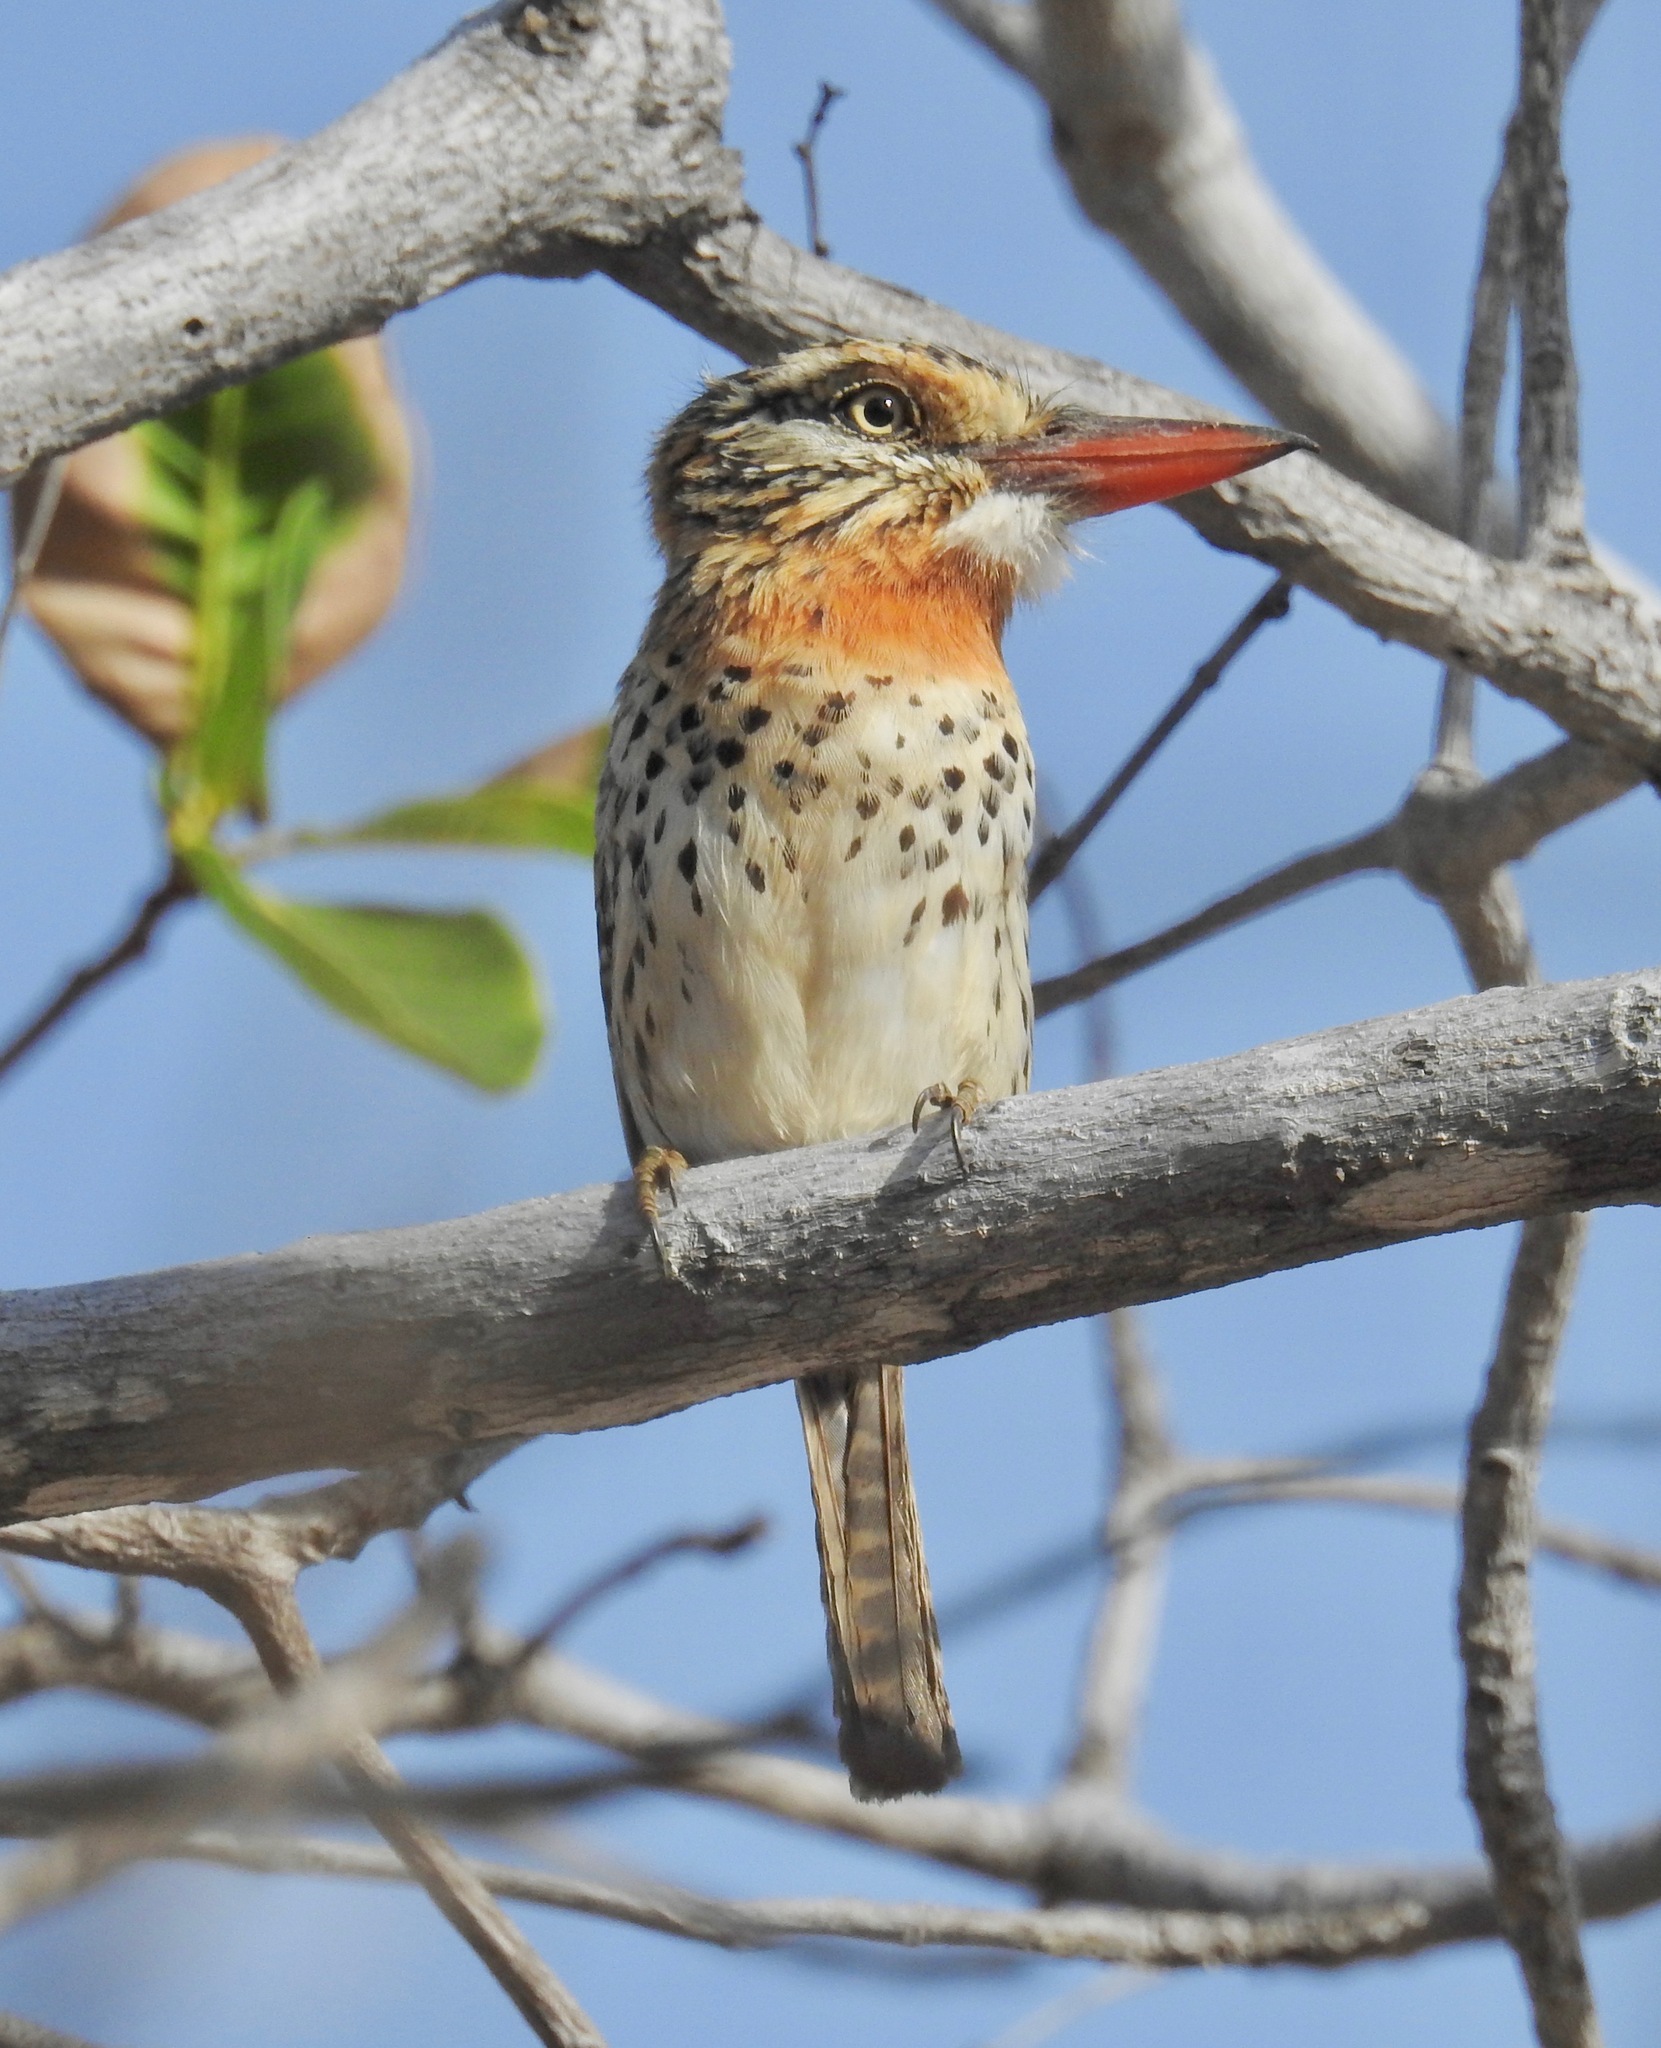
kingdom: Animalia
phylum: Chordata
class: Aves
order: Piciformes
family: Bucconidae
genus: Nystalus
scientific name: Nystalus maculatus
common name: Caatinga puffbird
